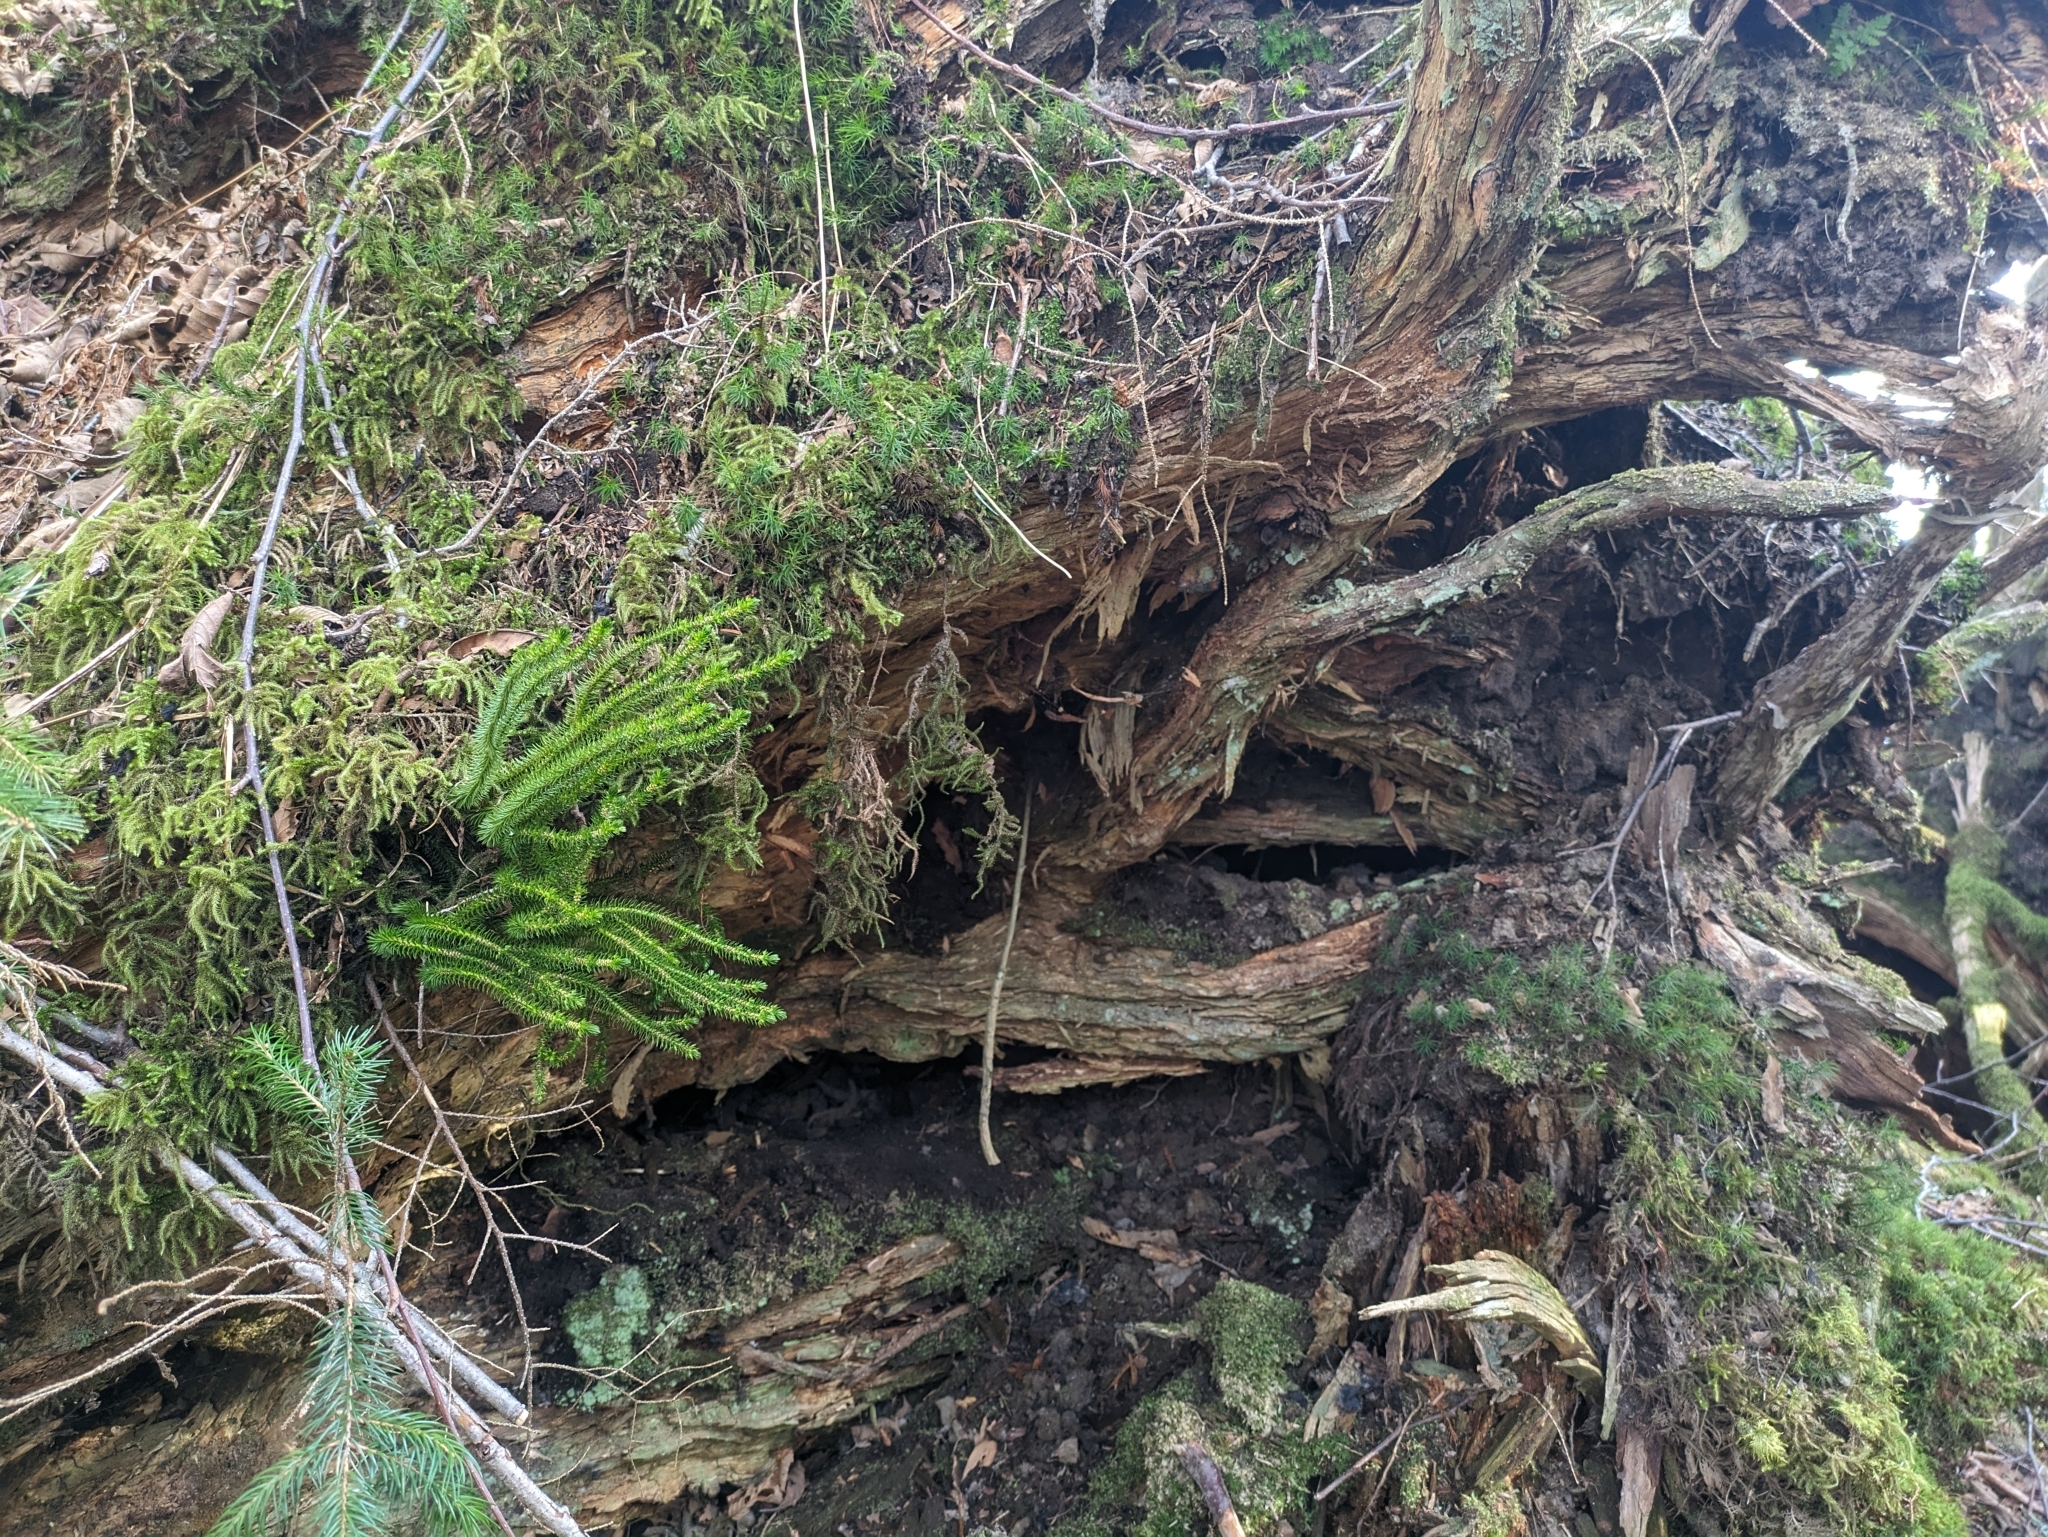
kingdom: Plantae
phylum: Tracheophyta
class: Lycopodiopsida
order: Lycopodiales
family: Lycopodiaceae
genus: Huperzia
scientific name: Huperzia miyoshiana
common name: Chinese clubmoss
